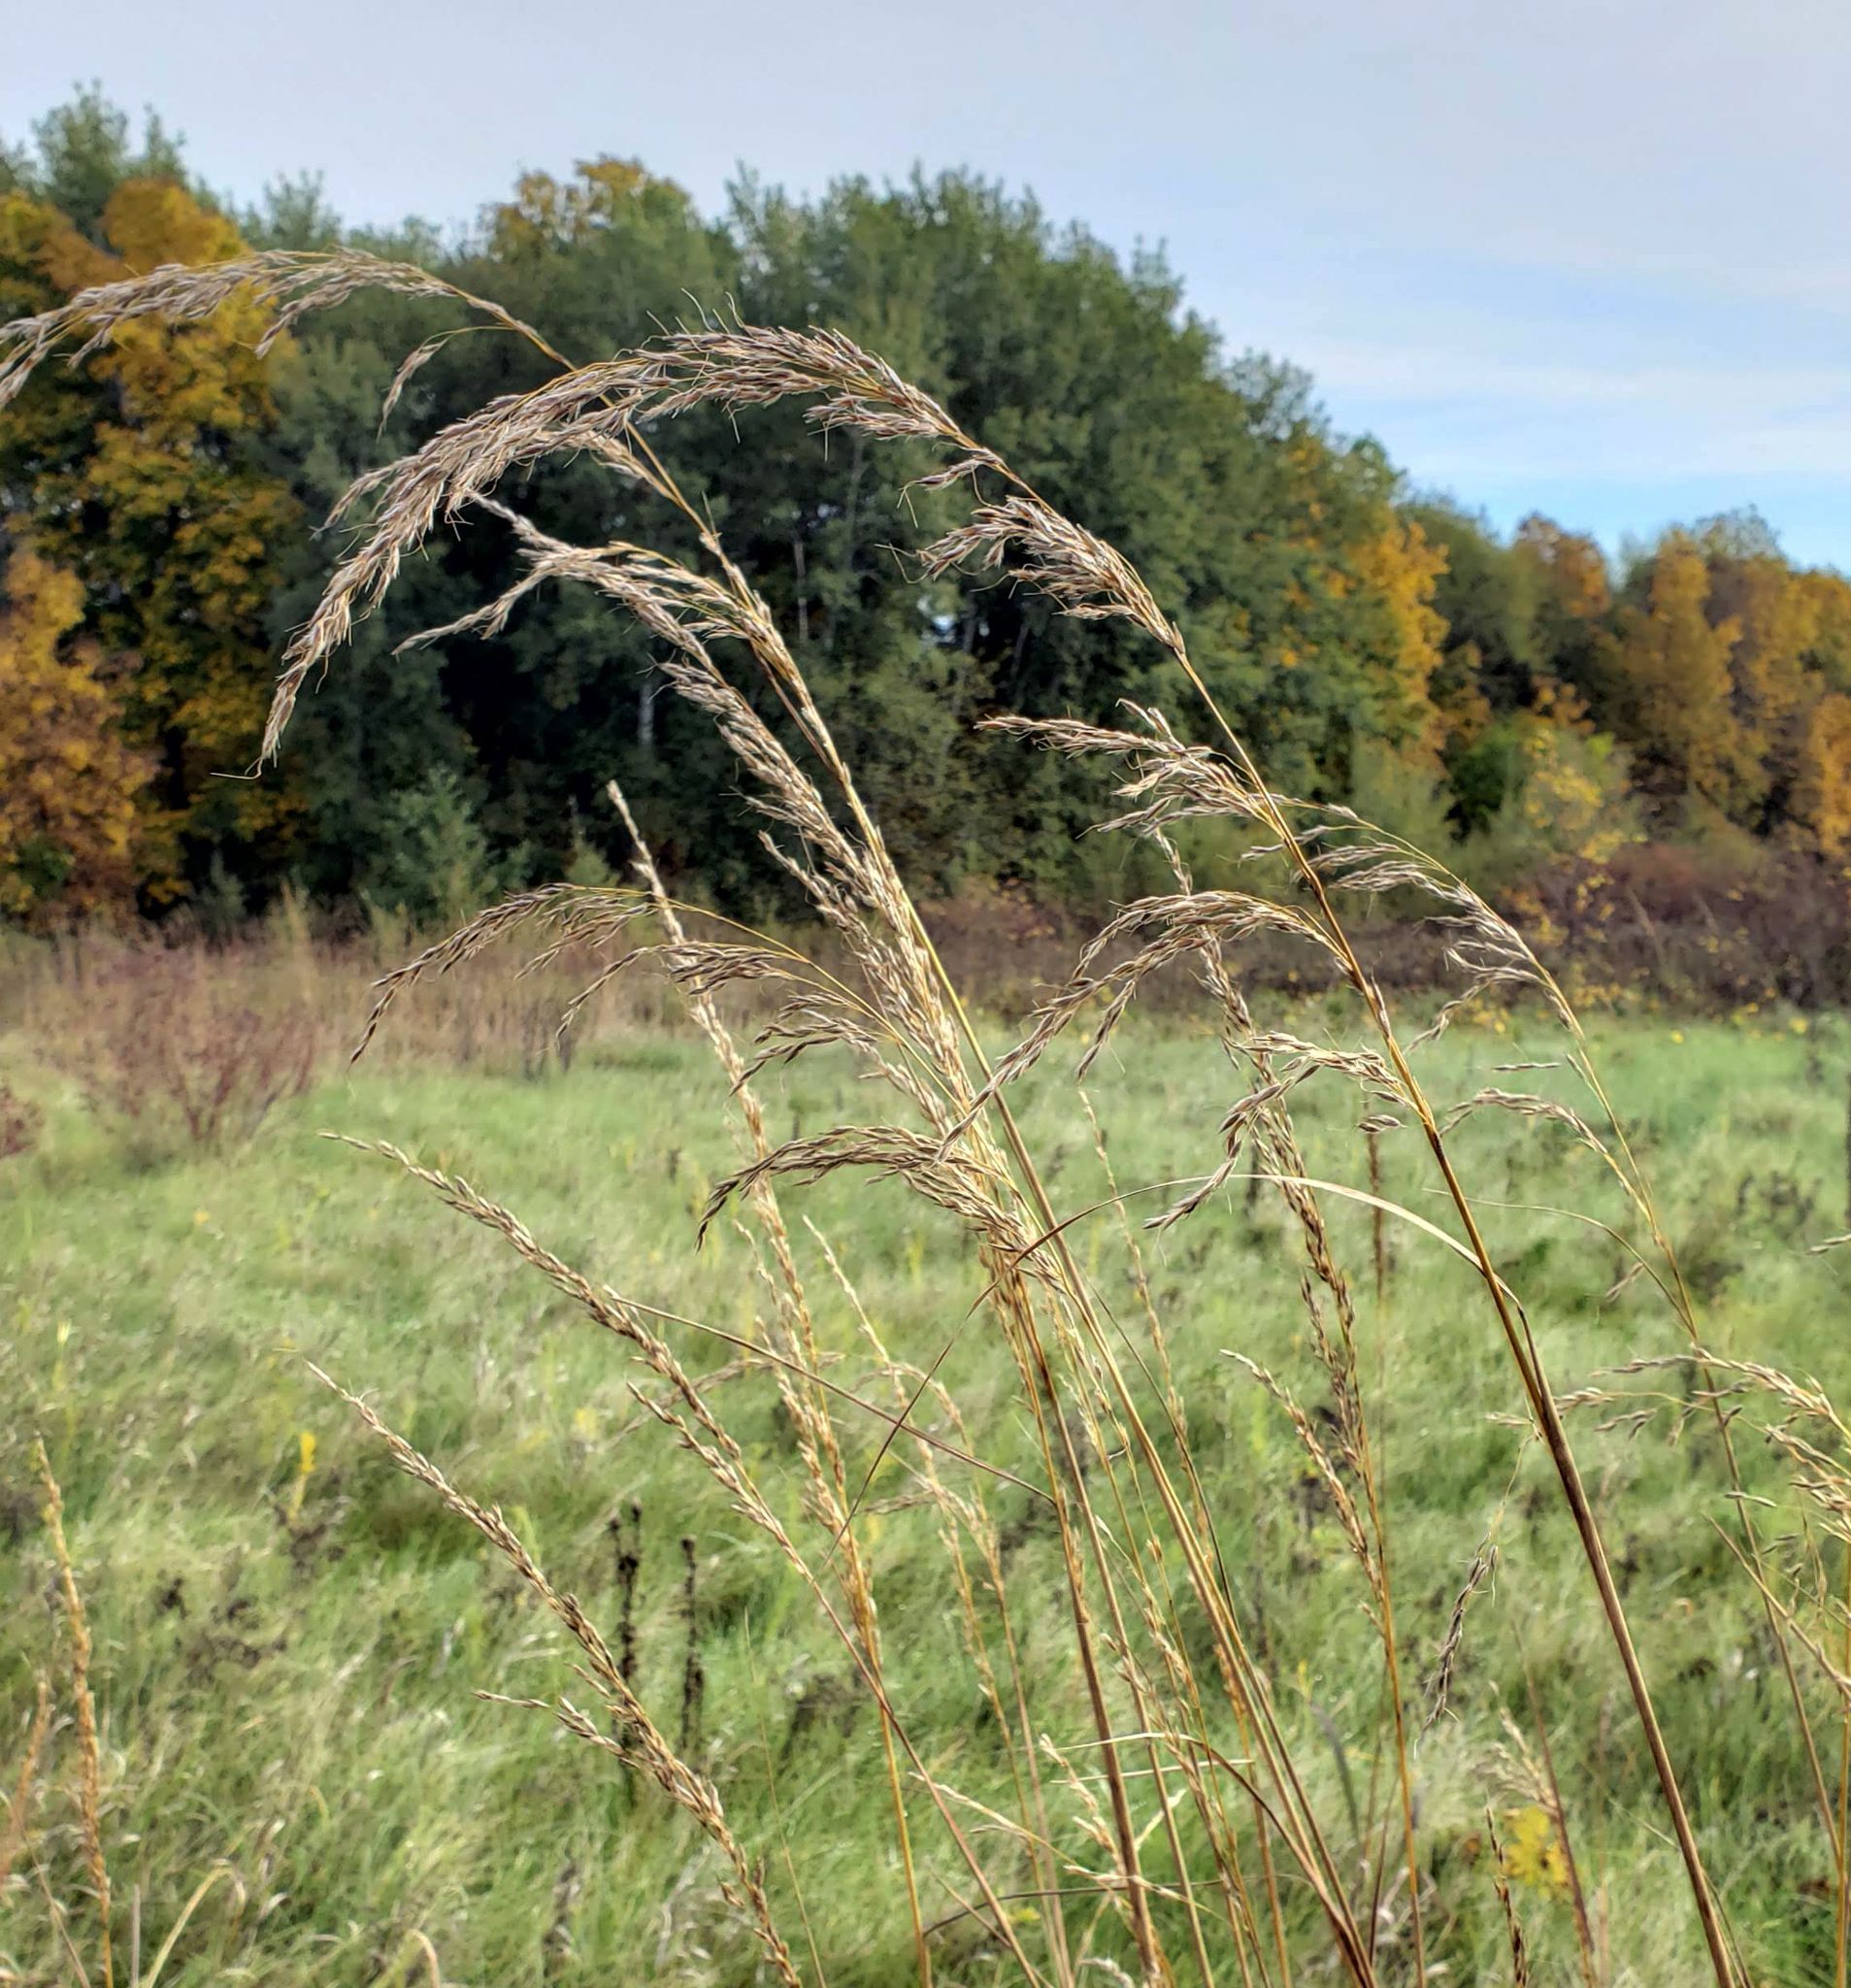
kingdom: Plantae
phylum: Tracheophyta
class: Liliopsida
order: Poales
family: Poaceae
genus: Sorghastrum
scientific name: Sorghastrum nutans
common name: Indian grass
